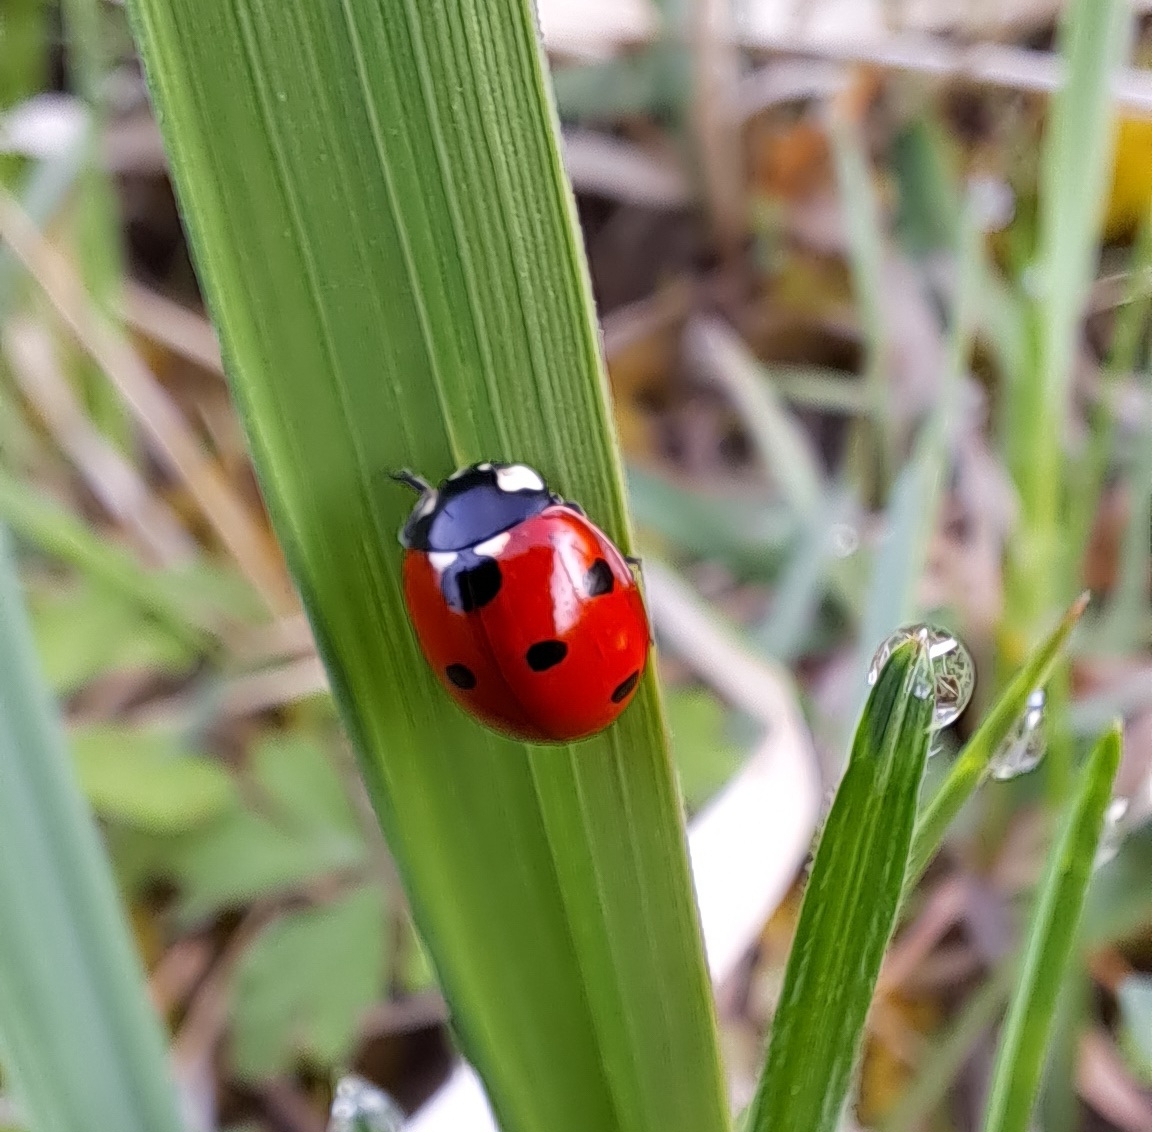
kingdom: Animalia
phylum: Arthropoda
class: Insecta
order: Coleoptera
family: Coccinellidae
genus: Coccinella
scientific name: Coccinella septempunctata
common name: Sevenspotted lady beetle
